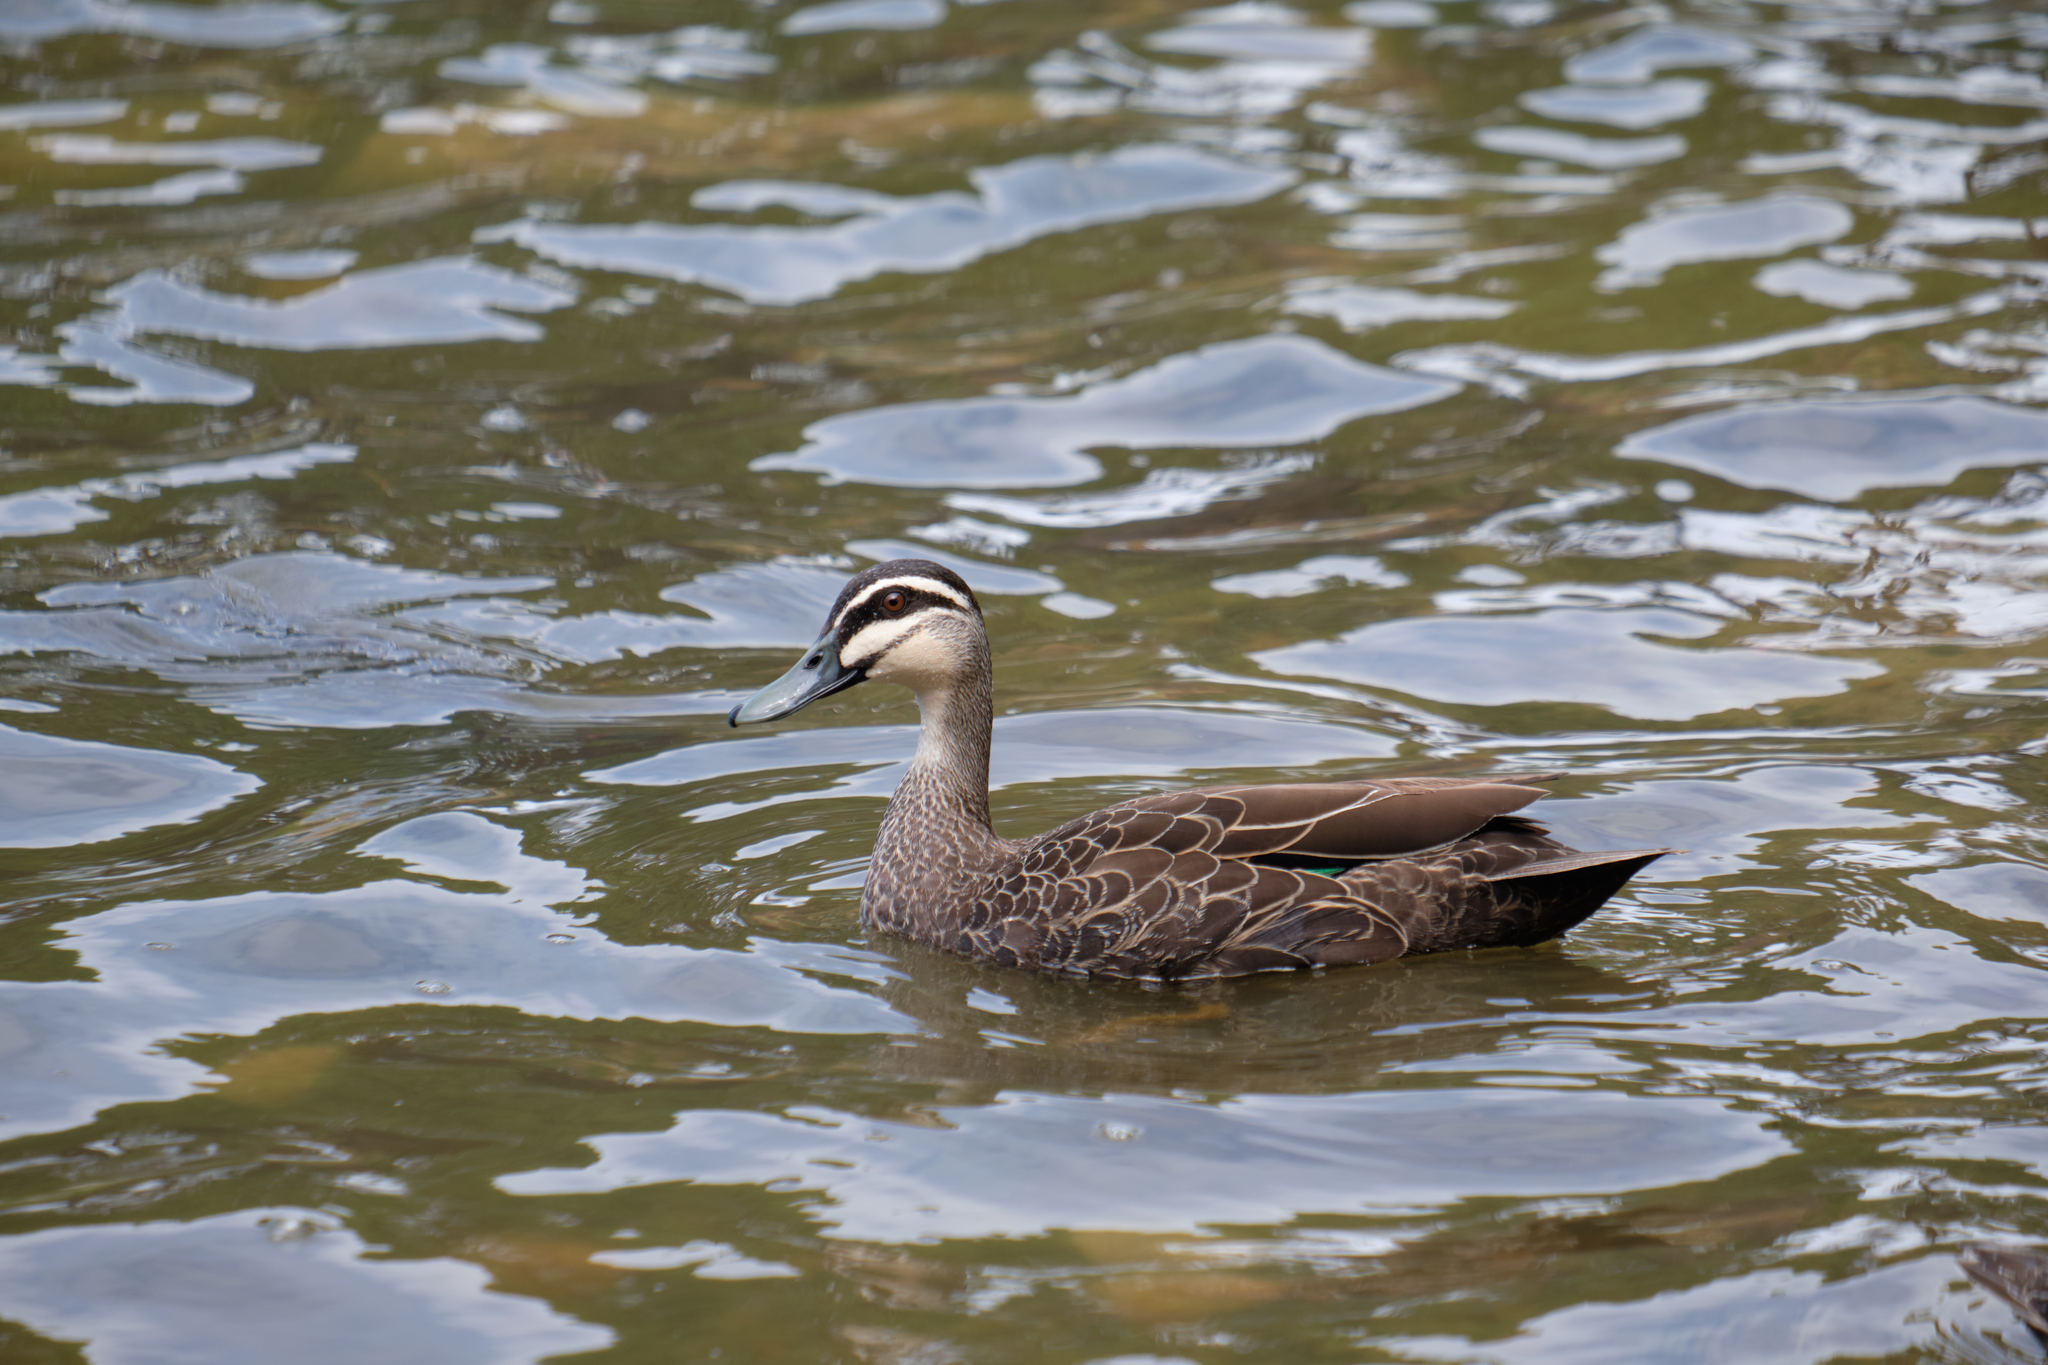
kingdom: Animalia
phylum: Chordata
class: Aves
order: Anseriformes
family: Anatidae
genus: Anas
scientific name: Anas superciliosa
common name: Pacific black duck
